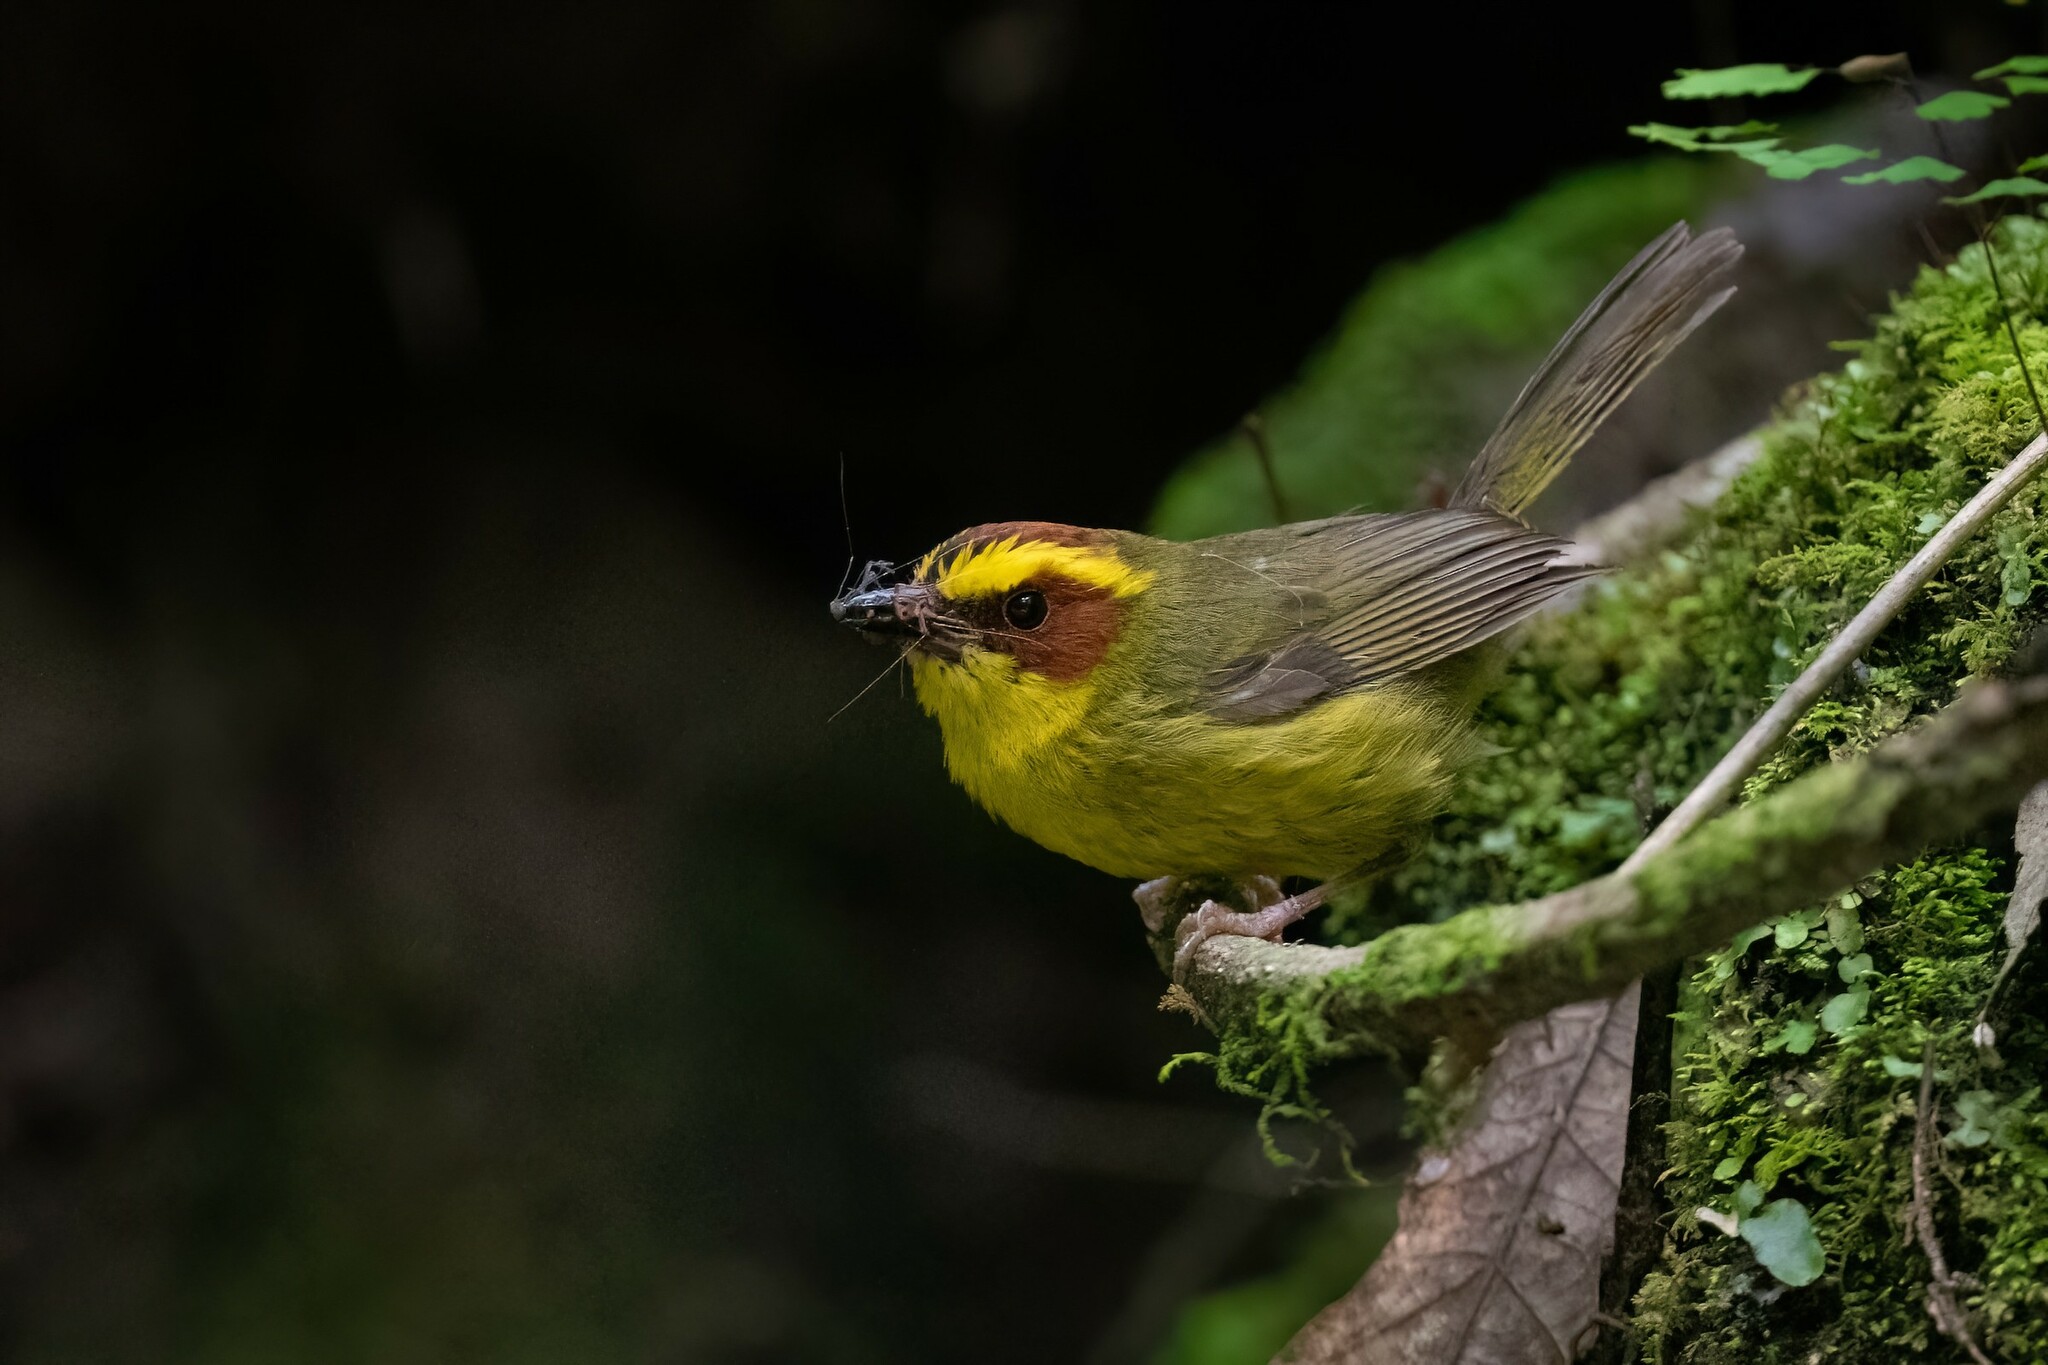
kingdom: Animalia
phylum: Chordata
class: Aves
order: Passeriformes
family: Parulidae
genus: Basileuterus
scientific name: Basileuterus belli
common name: Golden-browed warbler
